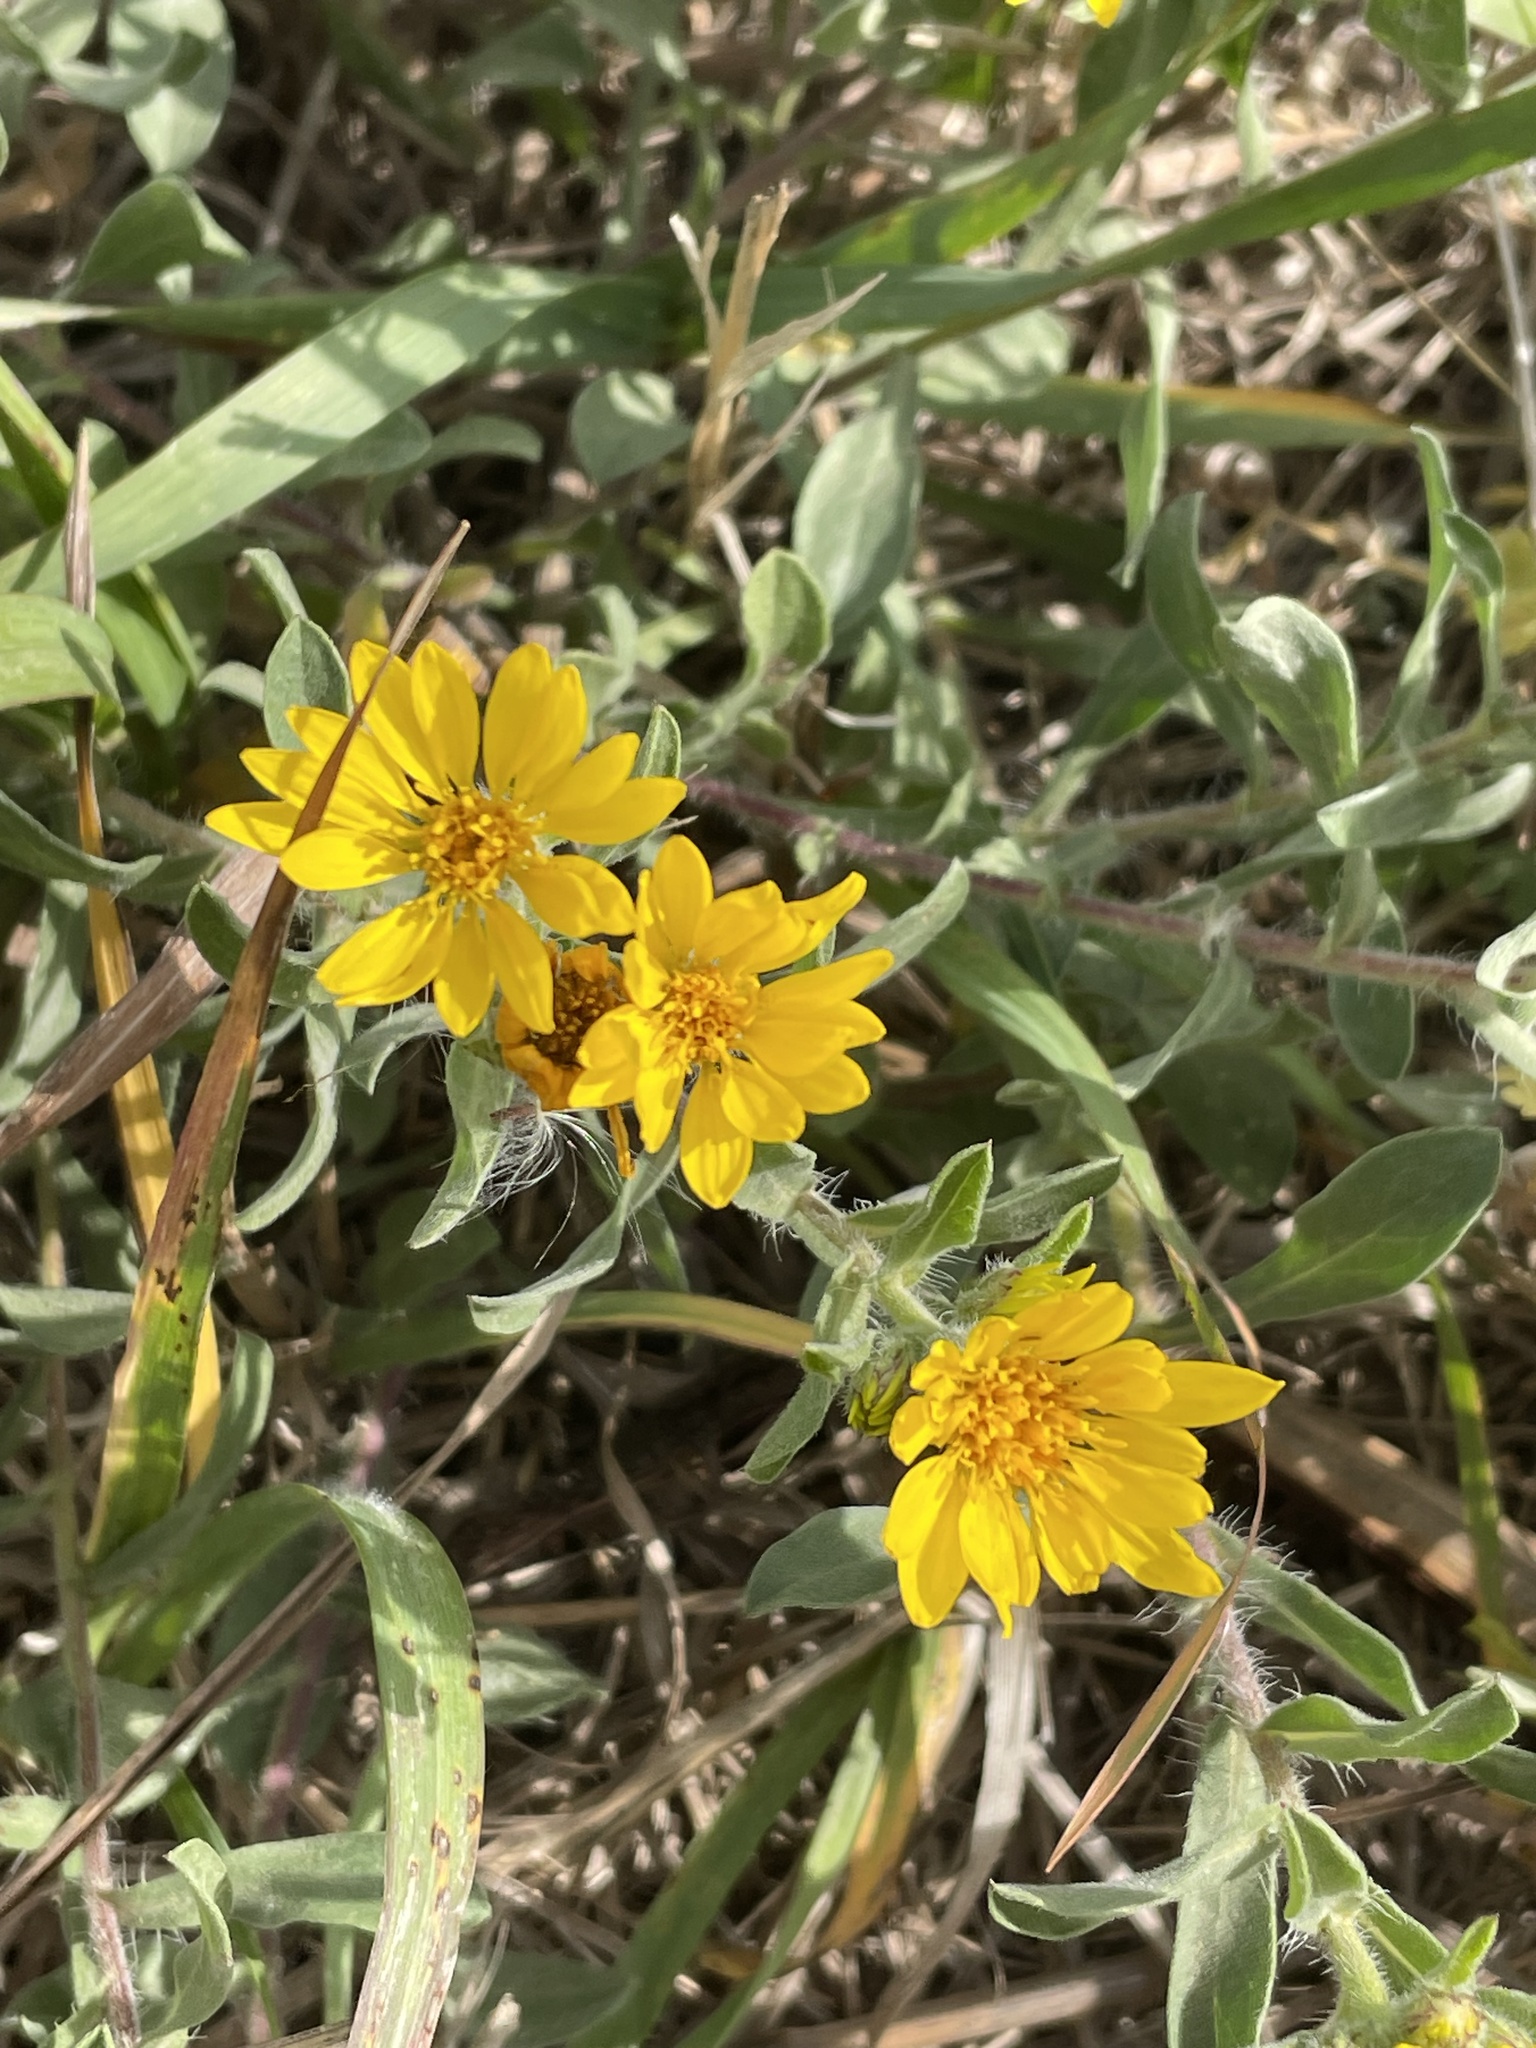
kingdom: Plantae
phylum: Tracheophyta
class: Magnoliopsida
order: Asterales
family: Asteraceae
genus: Heterotheca
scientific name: Heterotheca villosa
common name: Hairy false goldenaster
